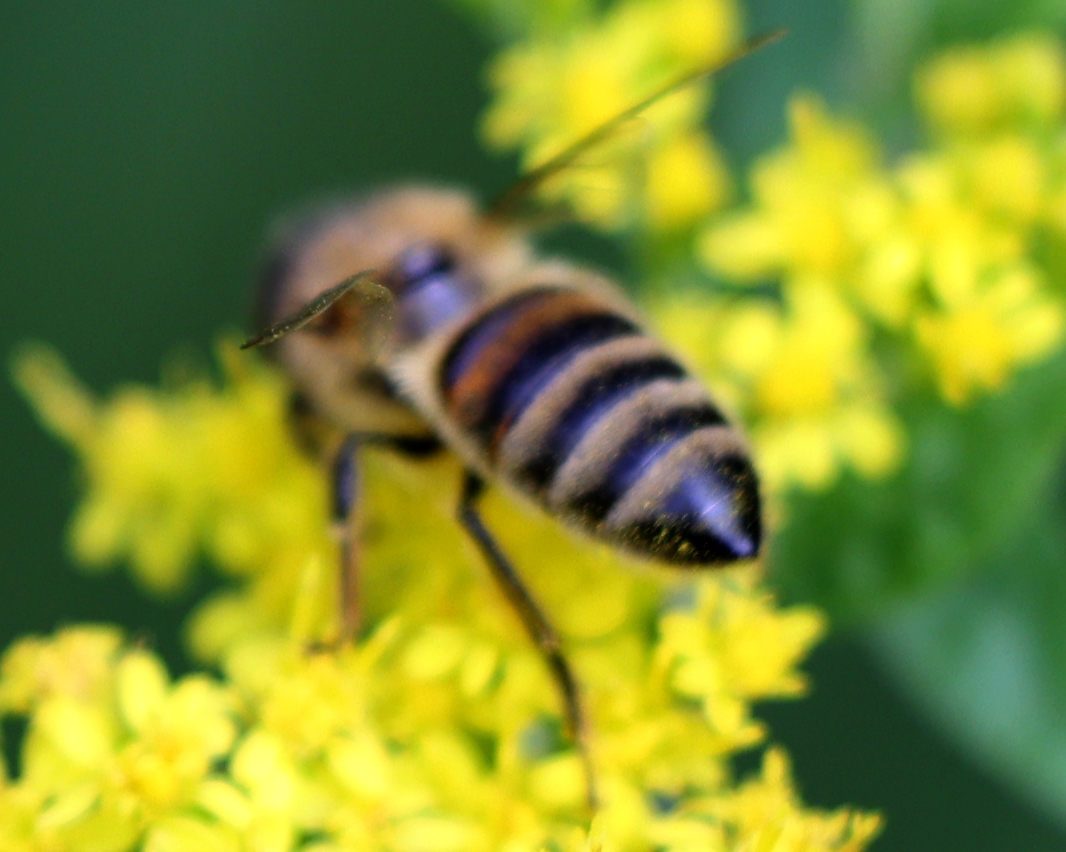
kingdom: Animalia
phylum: Arthropoda
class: Insecta
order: Hymenoptera
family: Apidae
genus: Apis
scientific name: Apis mellifera
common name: Honey bee
